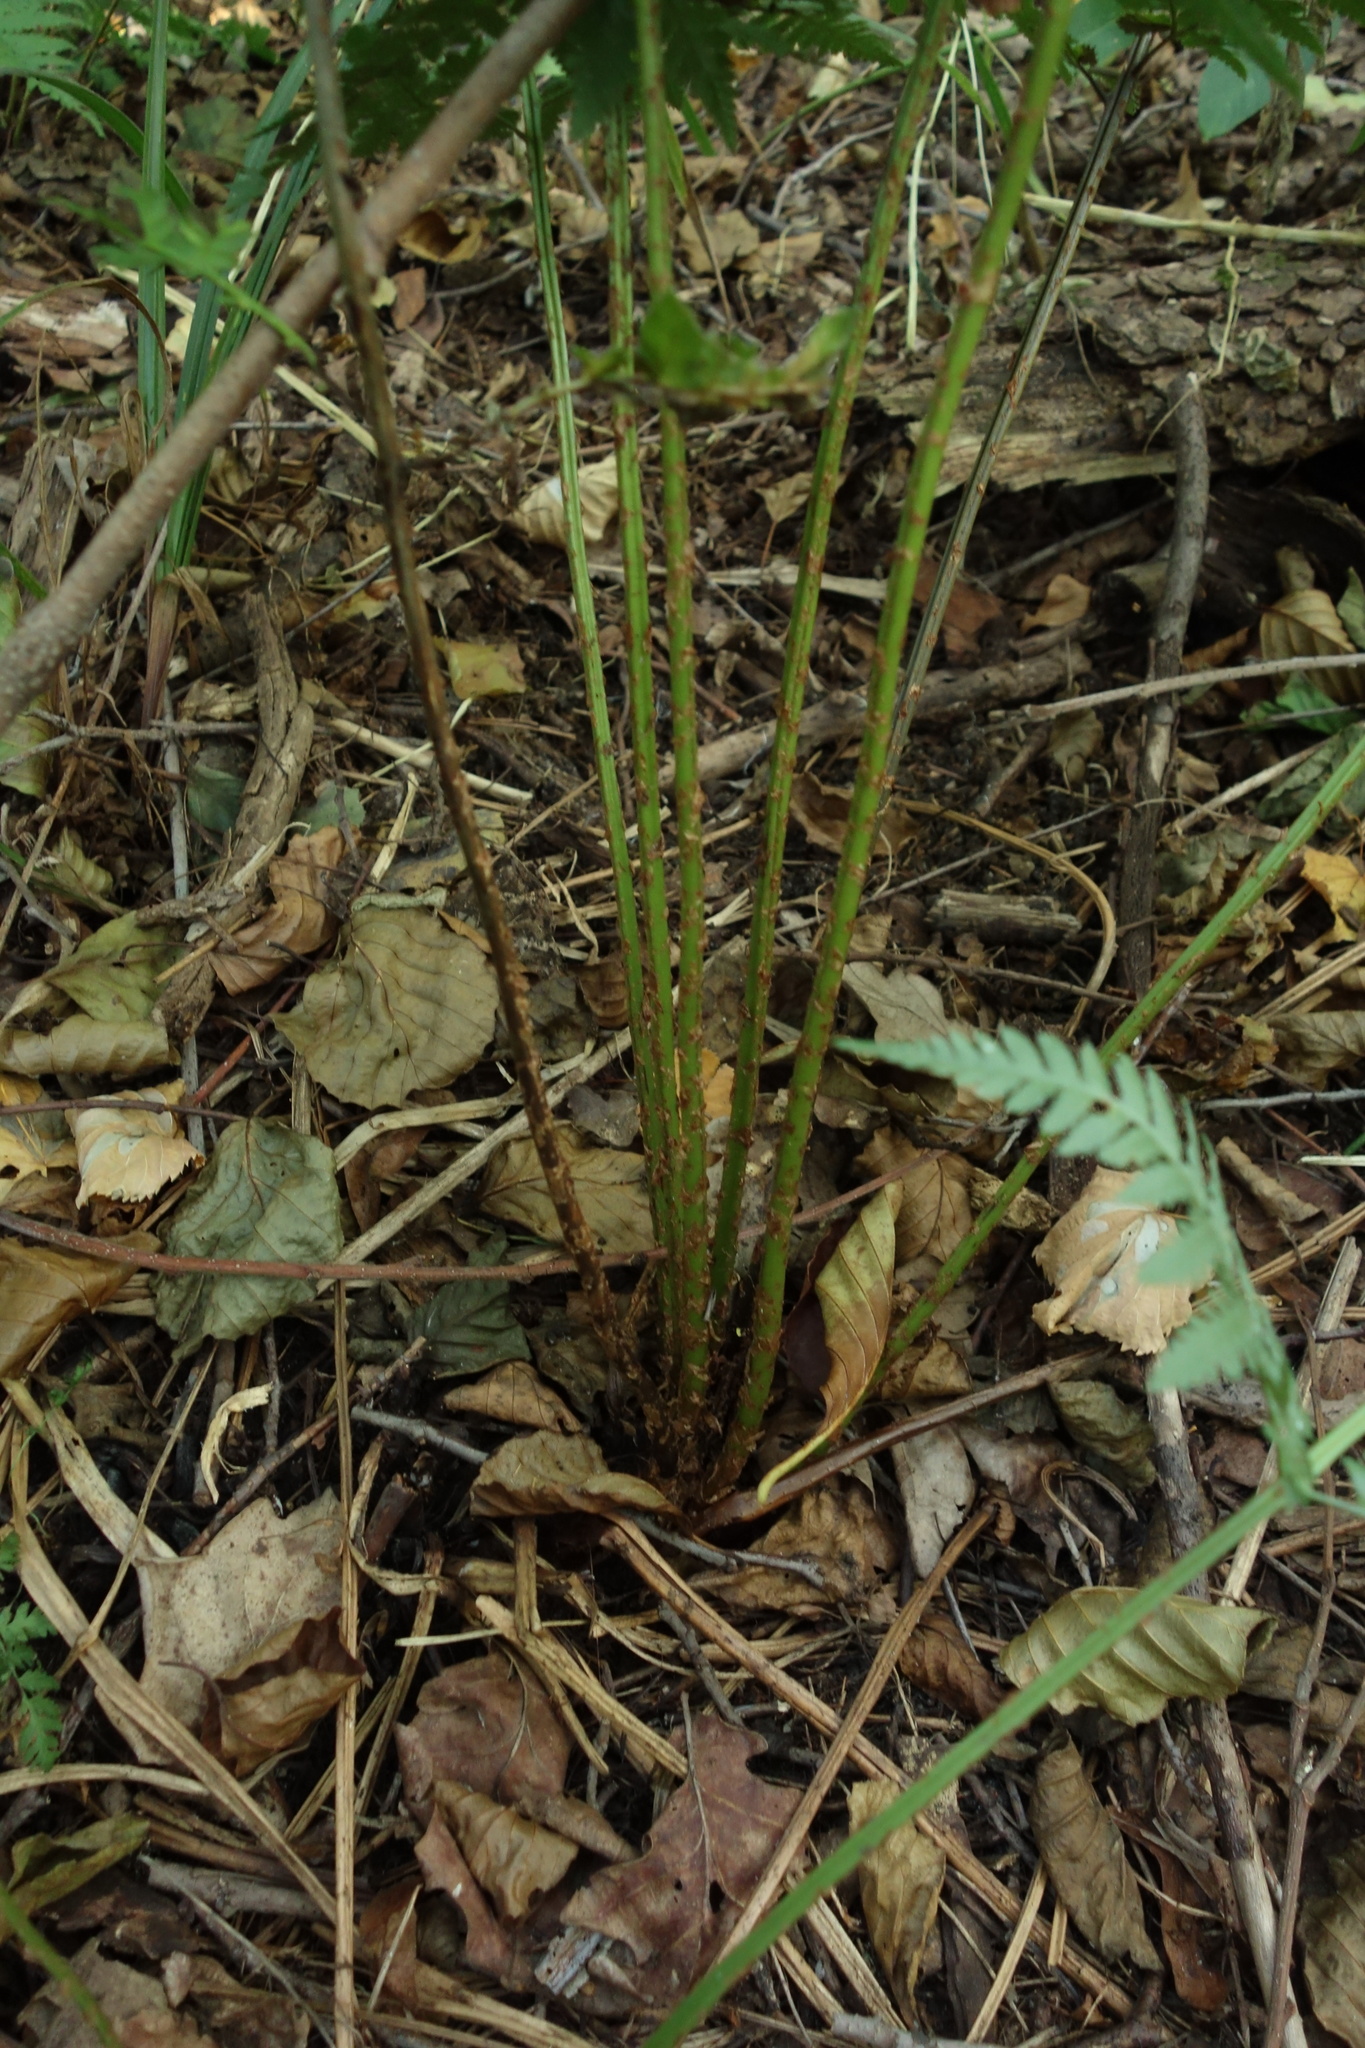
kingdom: Plantae
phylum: Tracheophyta
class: Polypodiopsida
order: Polypodiales
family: Dryopteridaceae
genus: Dryopteris
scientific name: Dryopteris carthusiana
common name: Narrow buckler-fern
